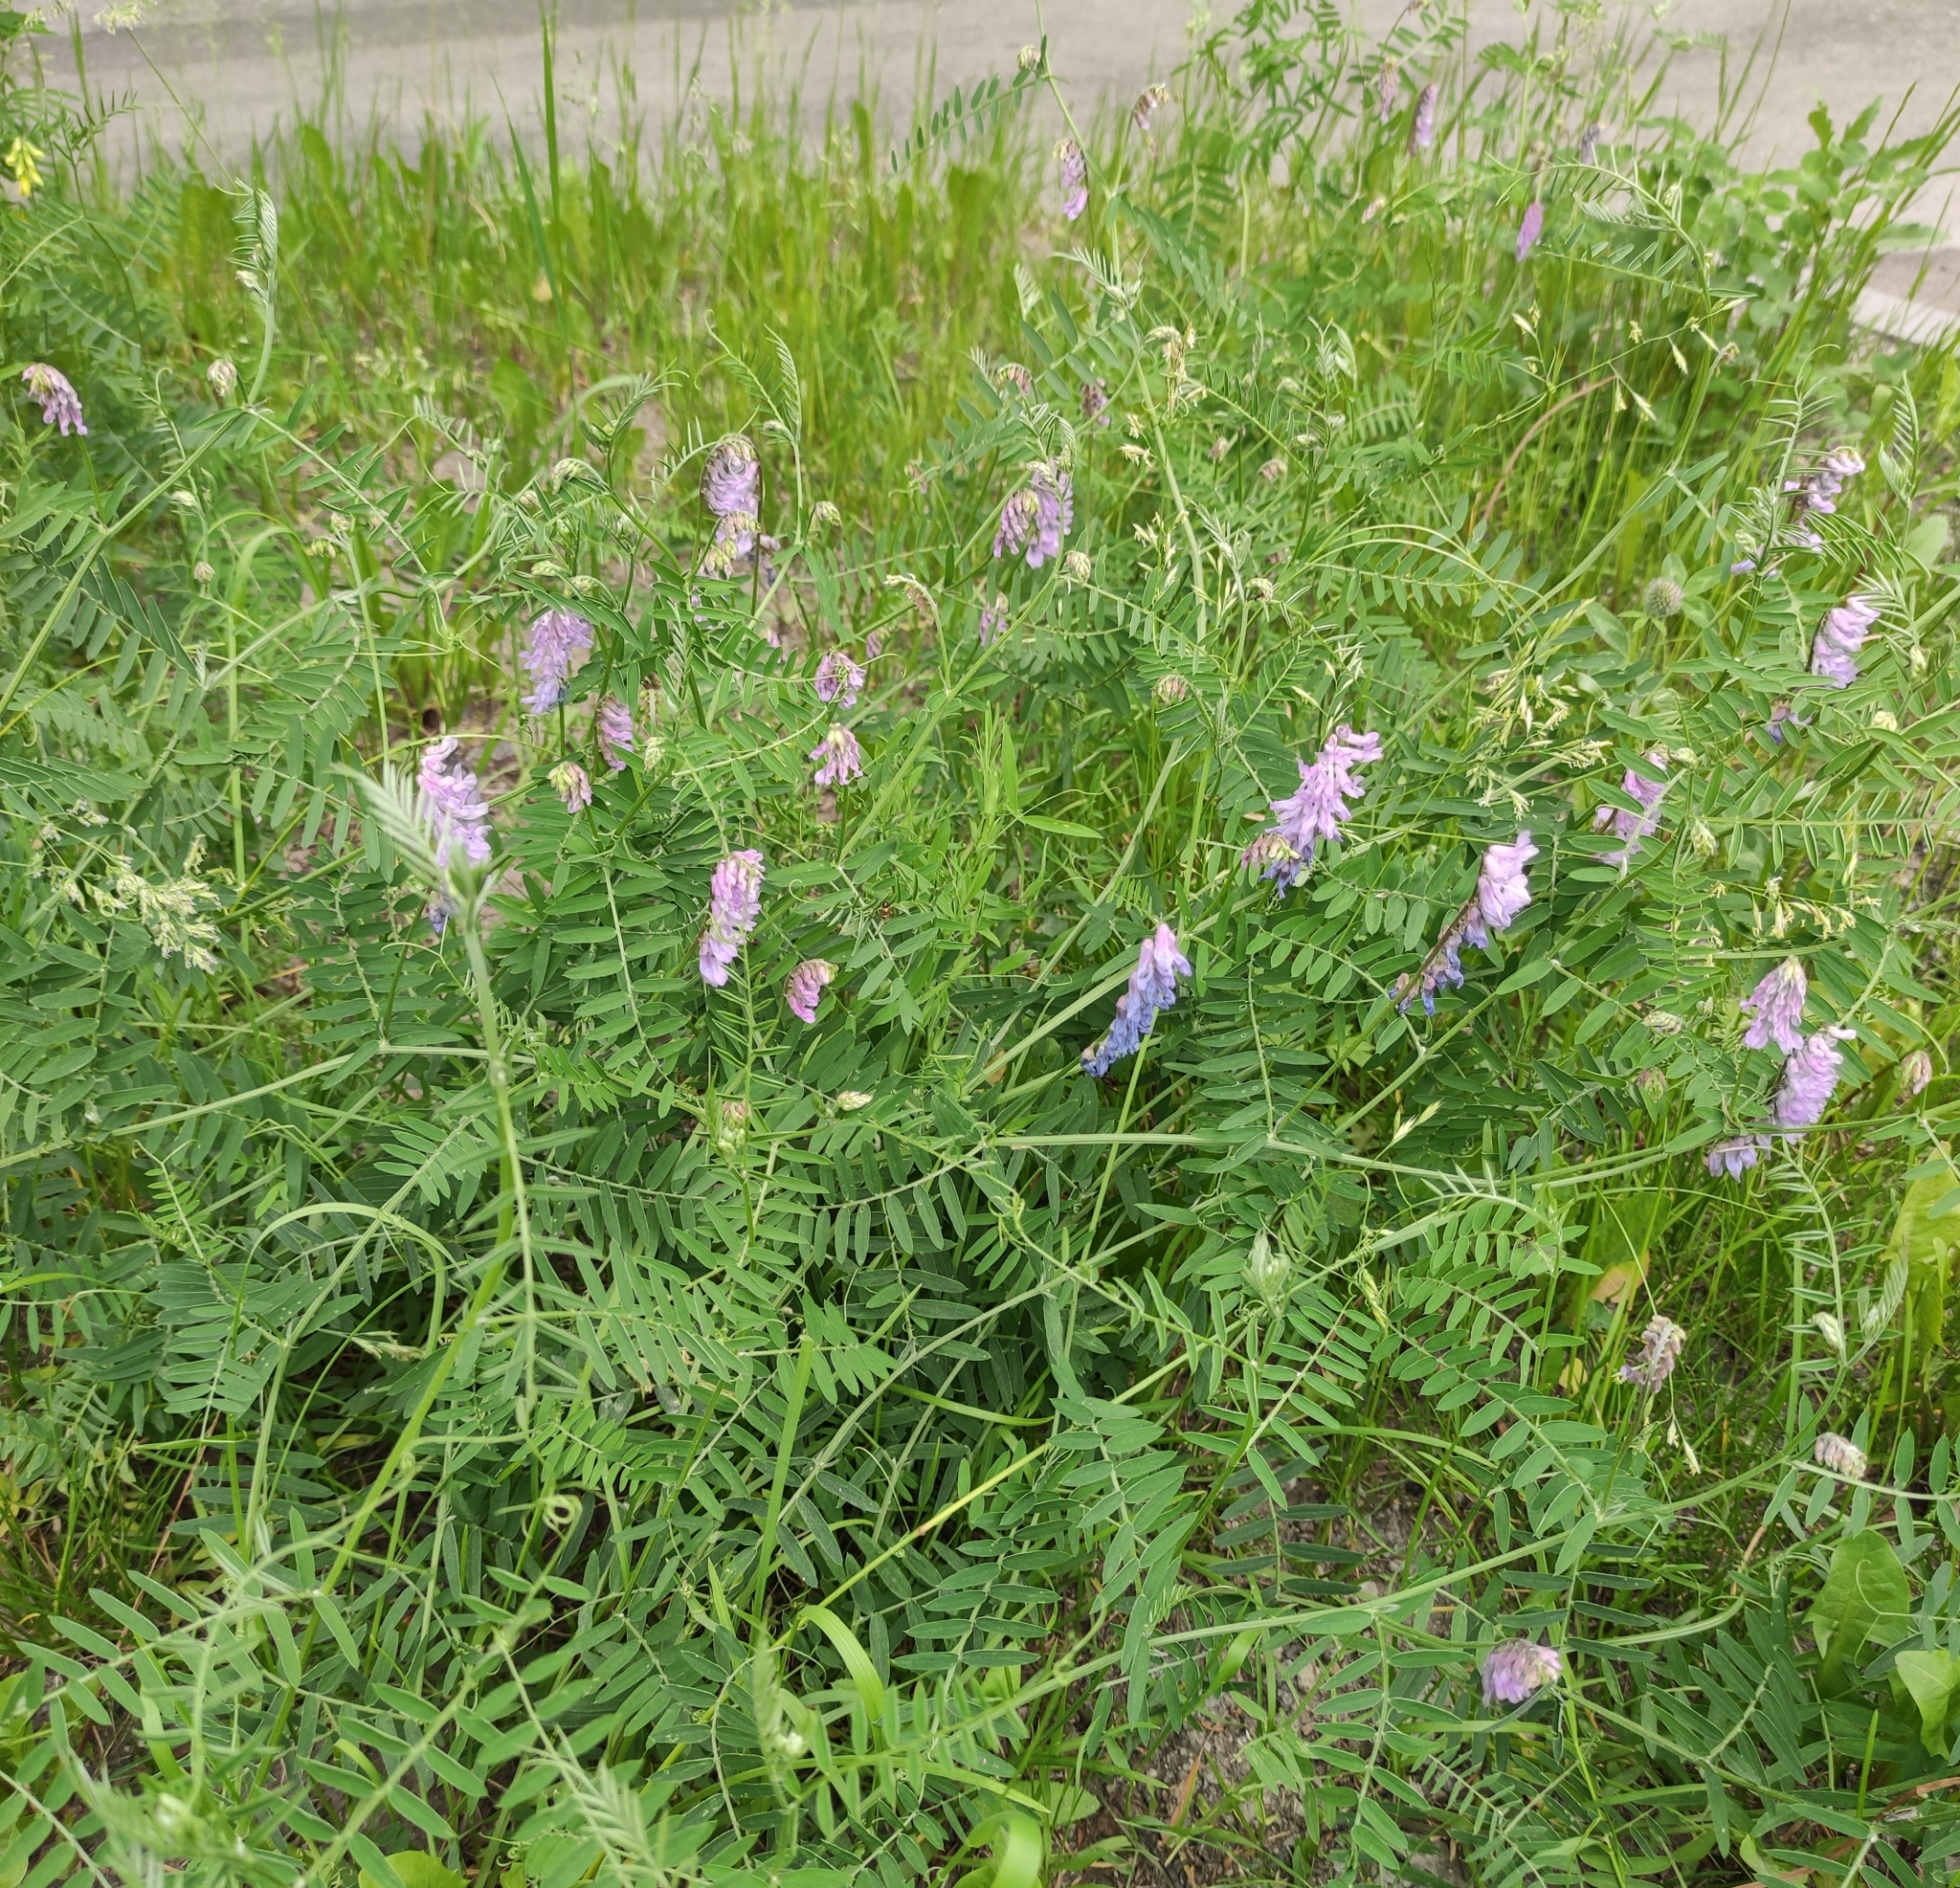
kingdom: Plantae
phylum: Tracheophyta
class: Magnoliopsida
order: Fabales
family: Fabaceae
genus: Vicia
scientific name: Vicia cracca
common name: Bird vetch
